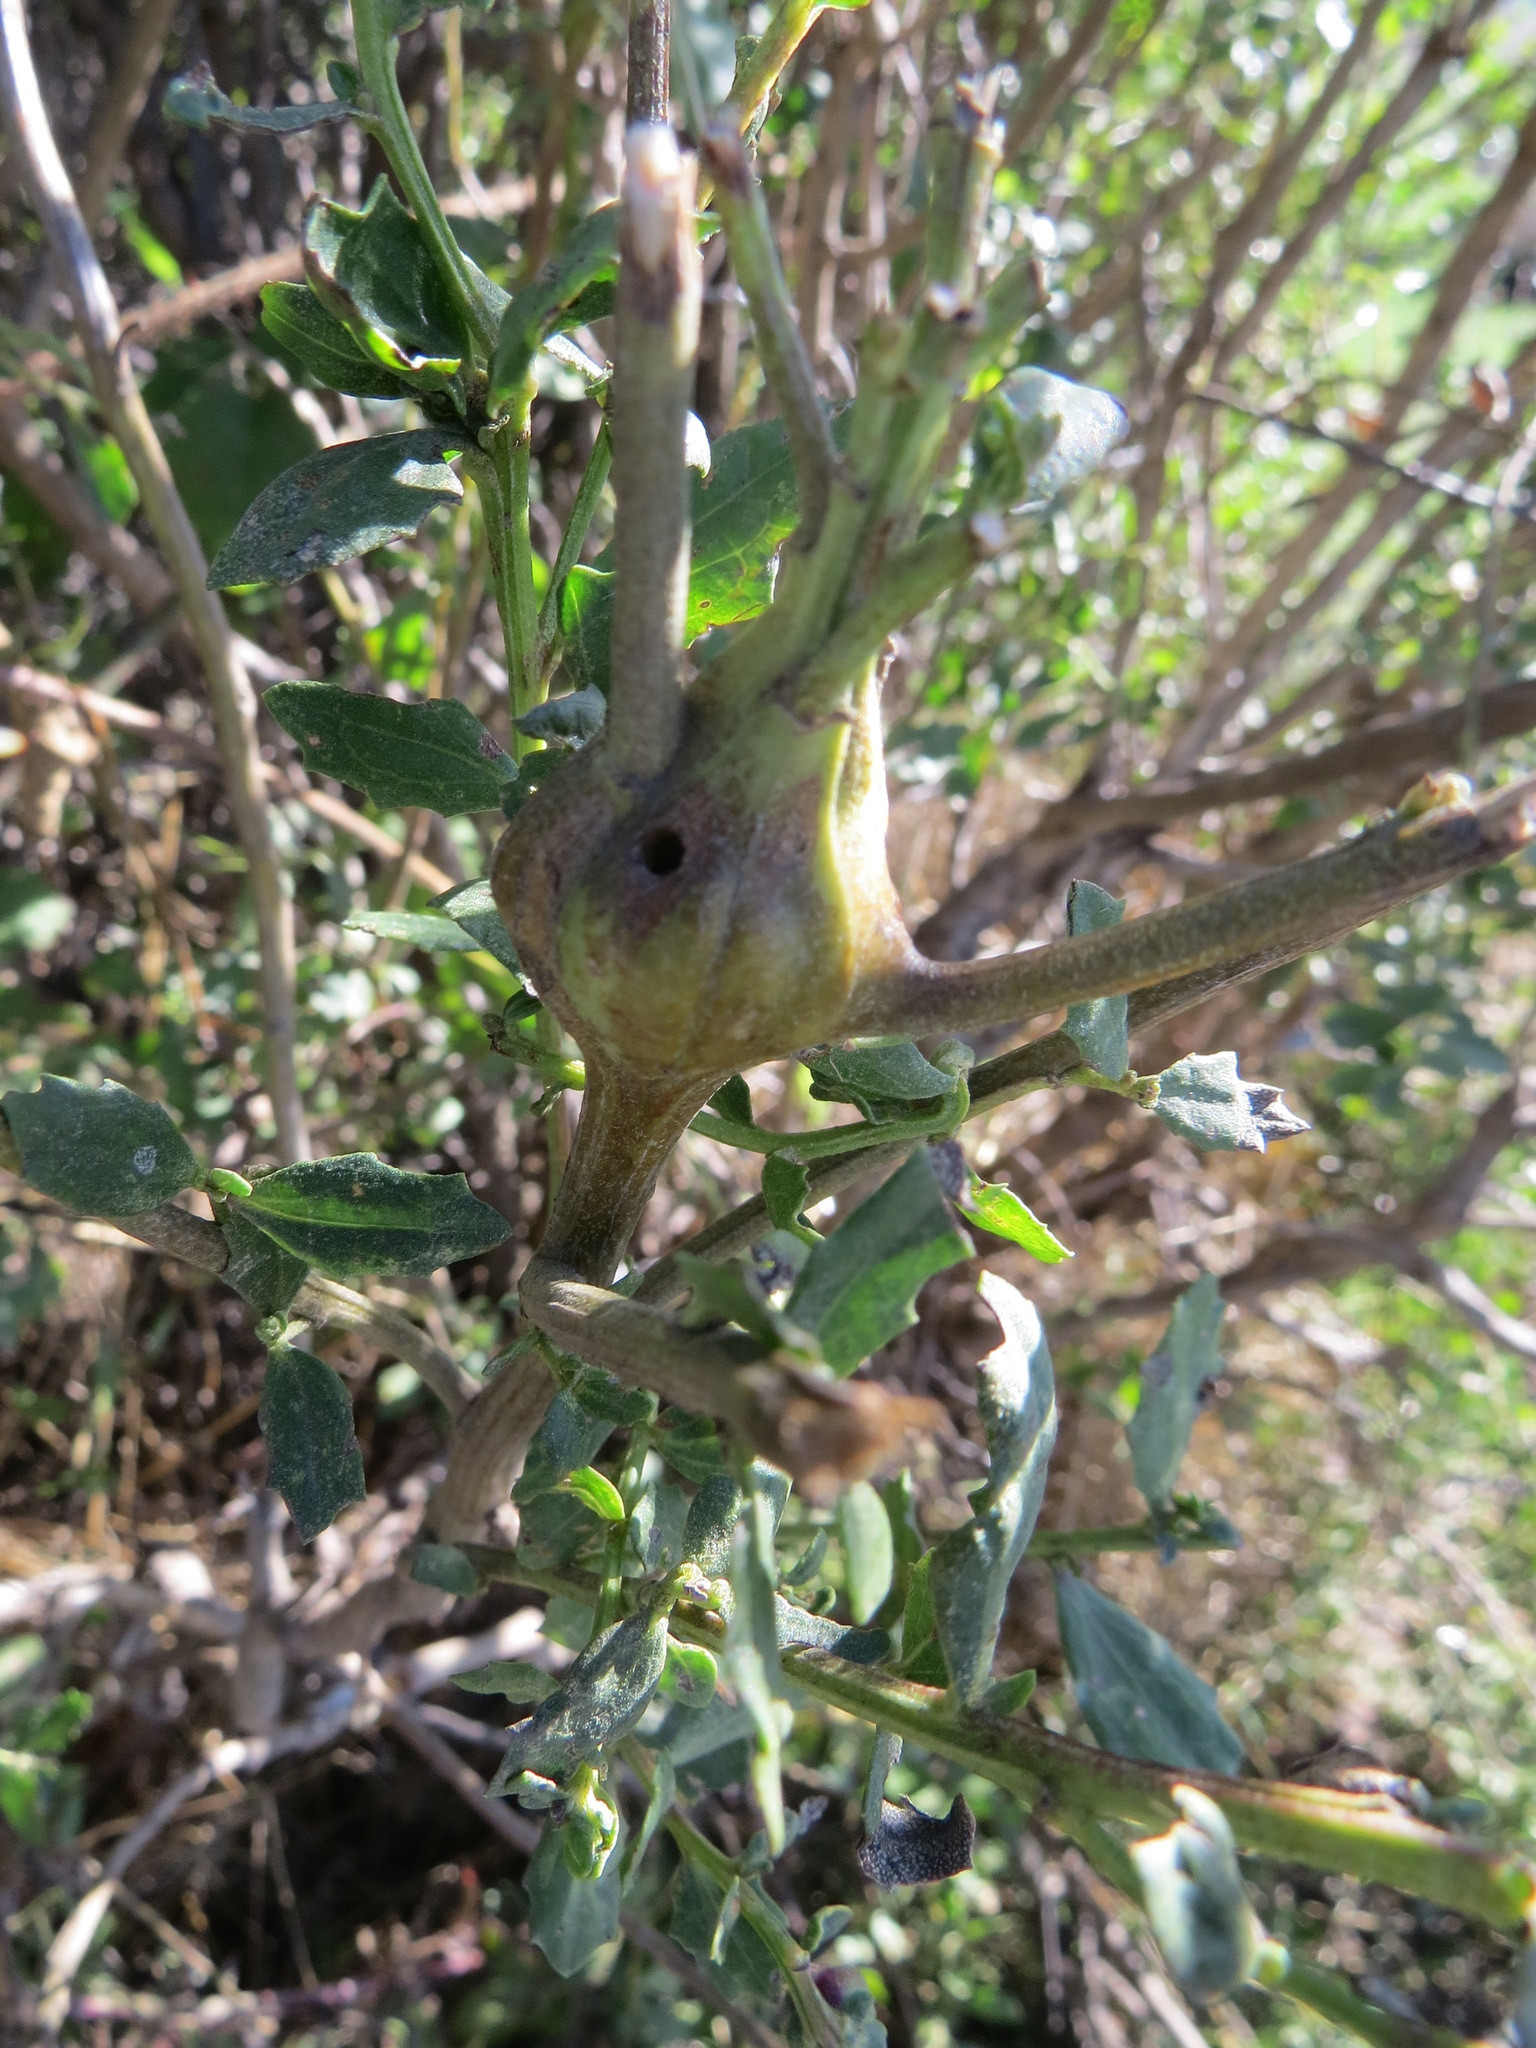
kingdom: Animalia
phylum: Arthropoda
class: Insecta
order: Lepidoptera
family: Gelechiidae
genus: Gnorimoschema
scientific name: Gnorimoschema baccharisella
